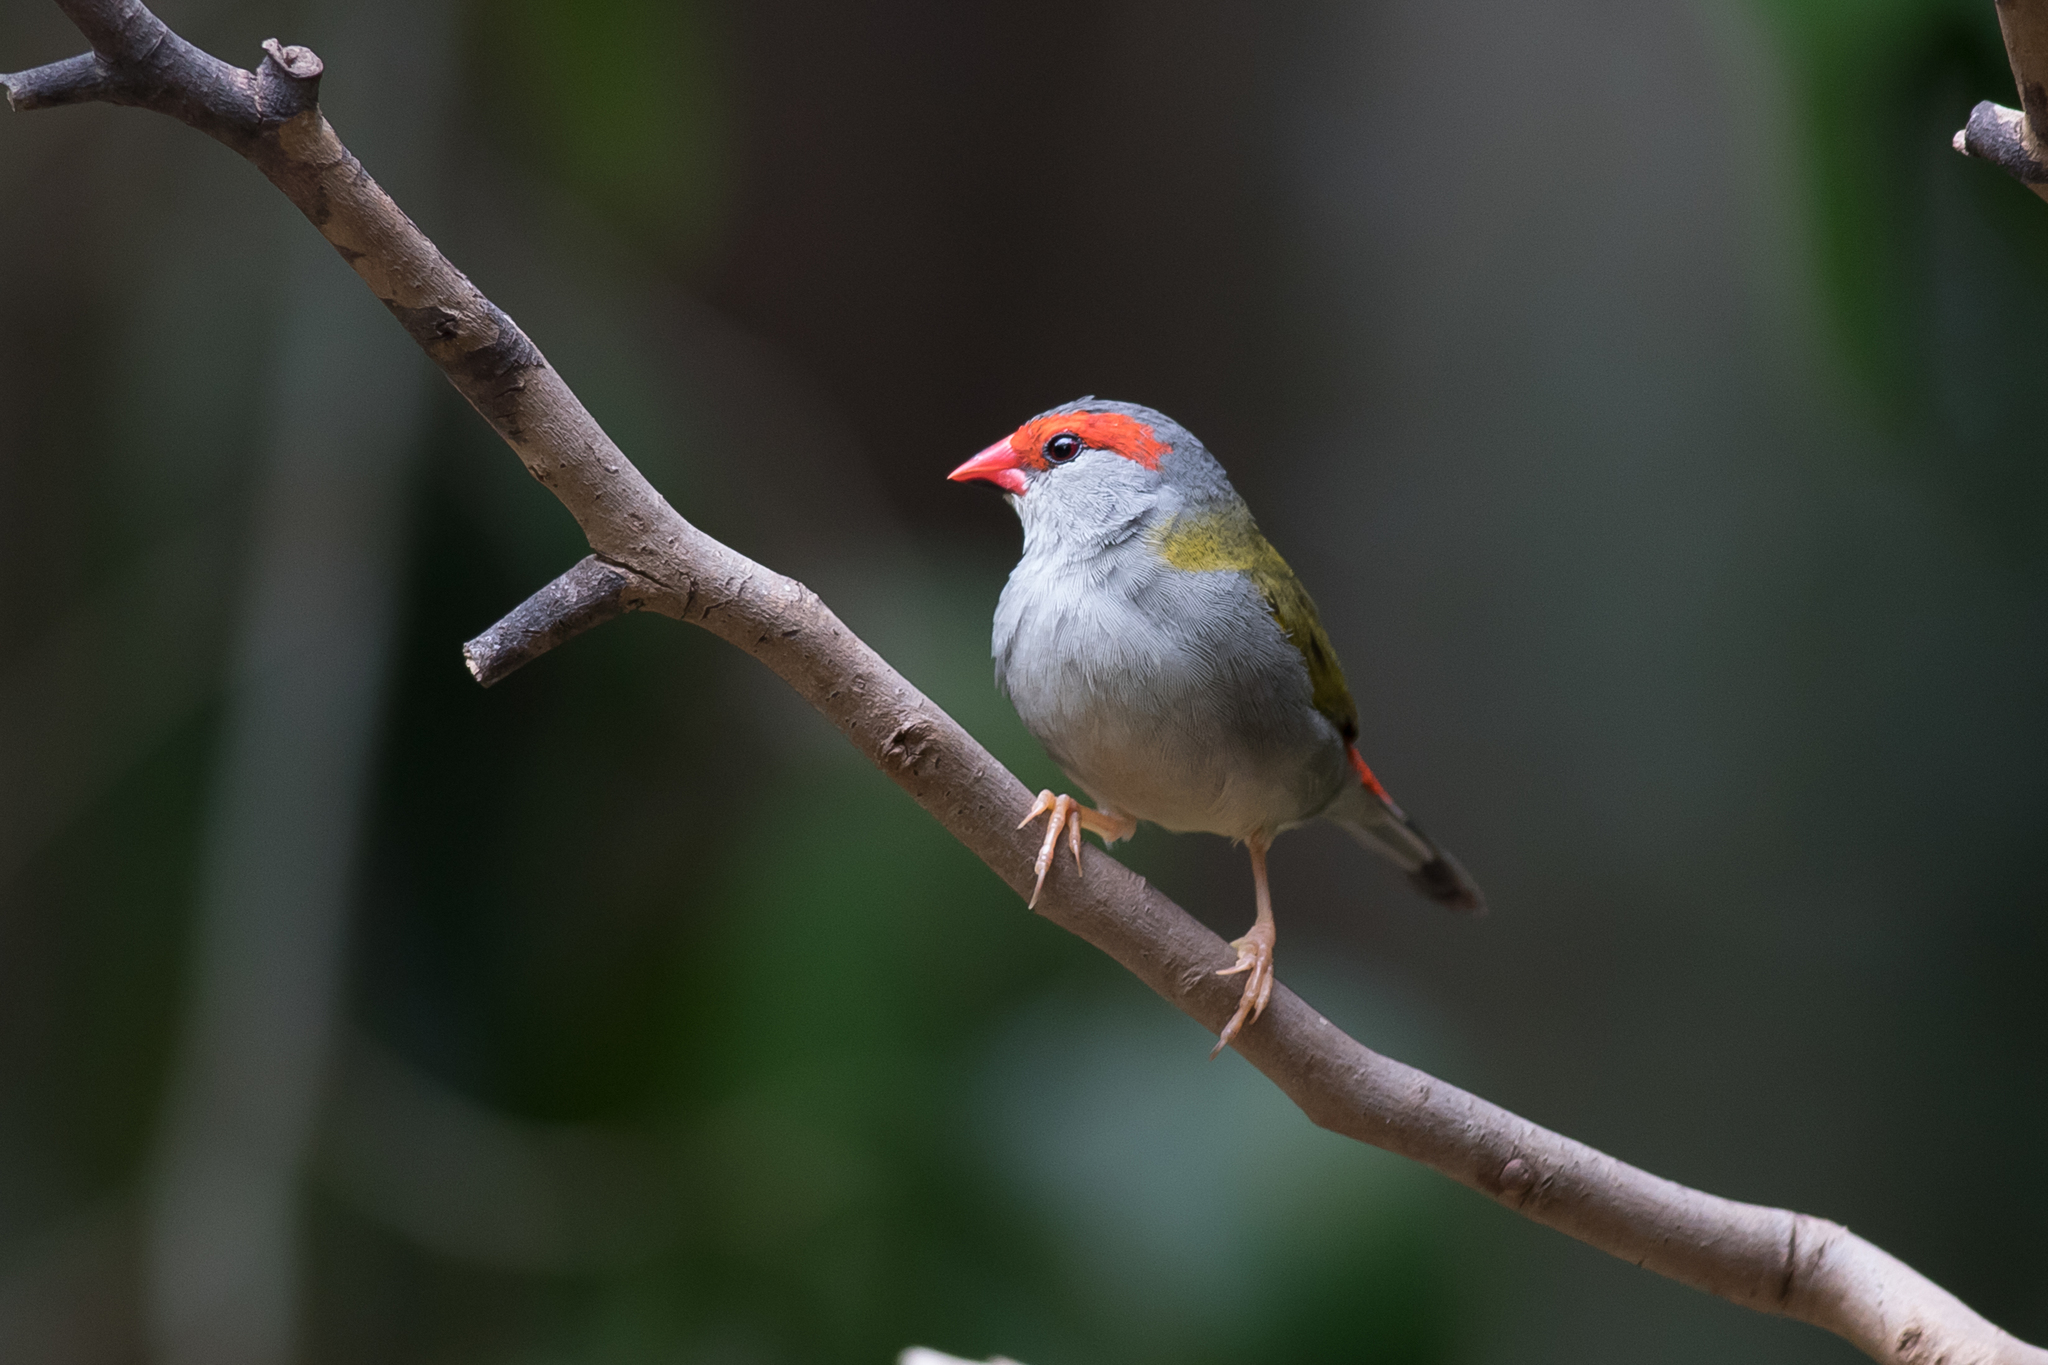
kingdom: Animalia
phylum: Chordata
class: Aves
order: Passeriformes
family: Estrildidae
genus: Neochmia
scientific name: Neochmia temporalis
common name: Red-browed finch
